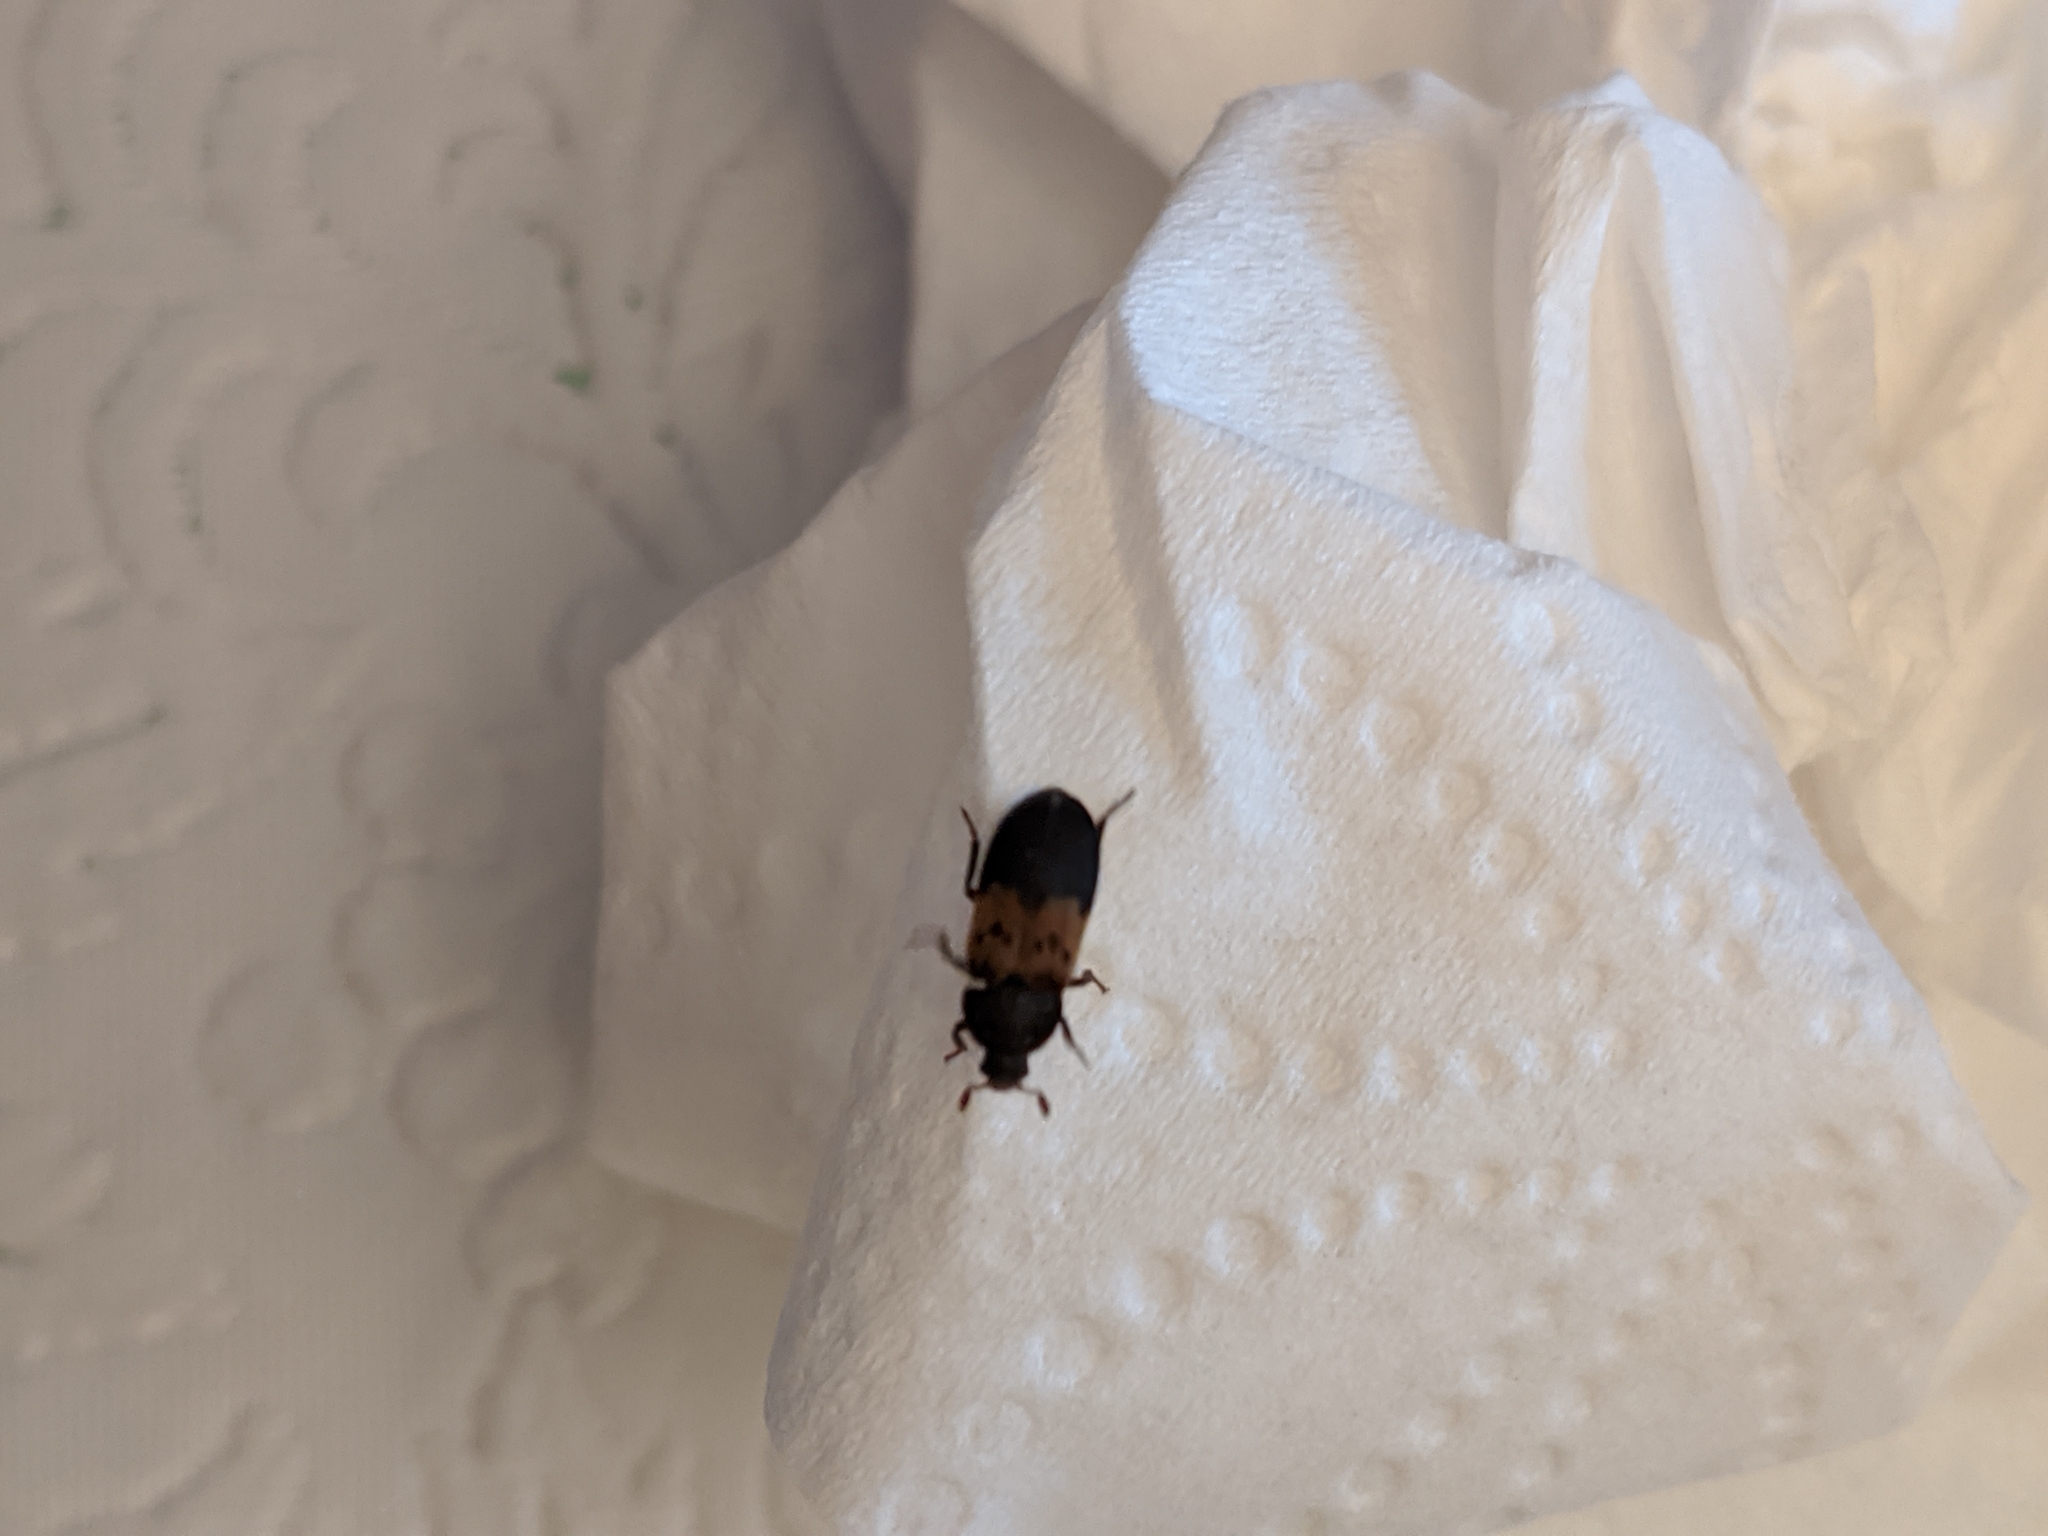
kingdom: Animalia
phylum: Arthropoda
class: Insecta
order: Coleoptera
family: Dermestidae
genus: Dermestes
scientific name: Dermestes lardarius
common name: Larder beetle
